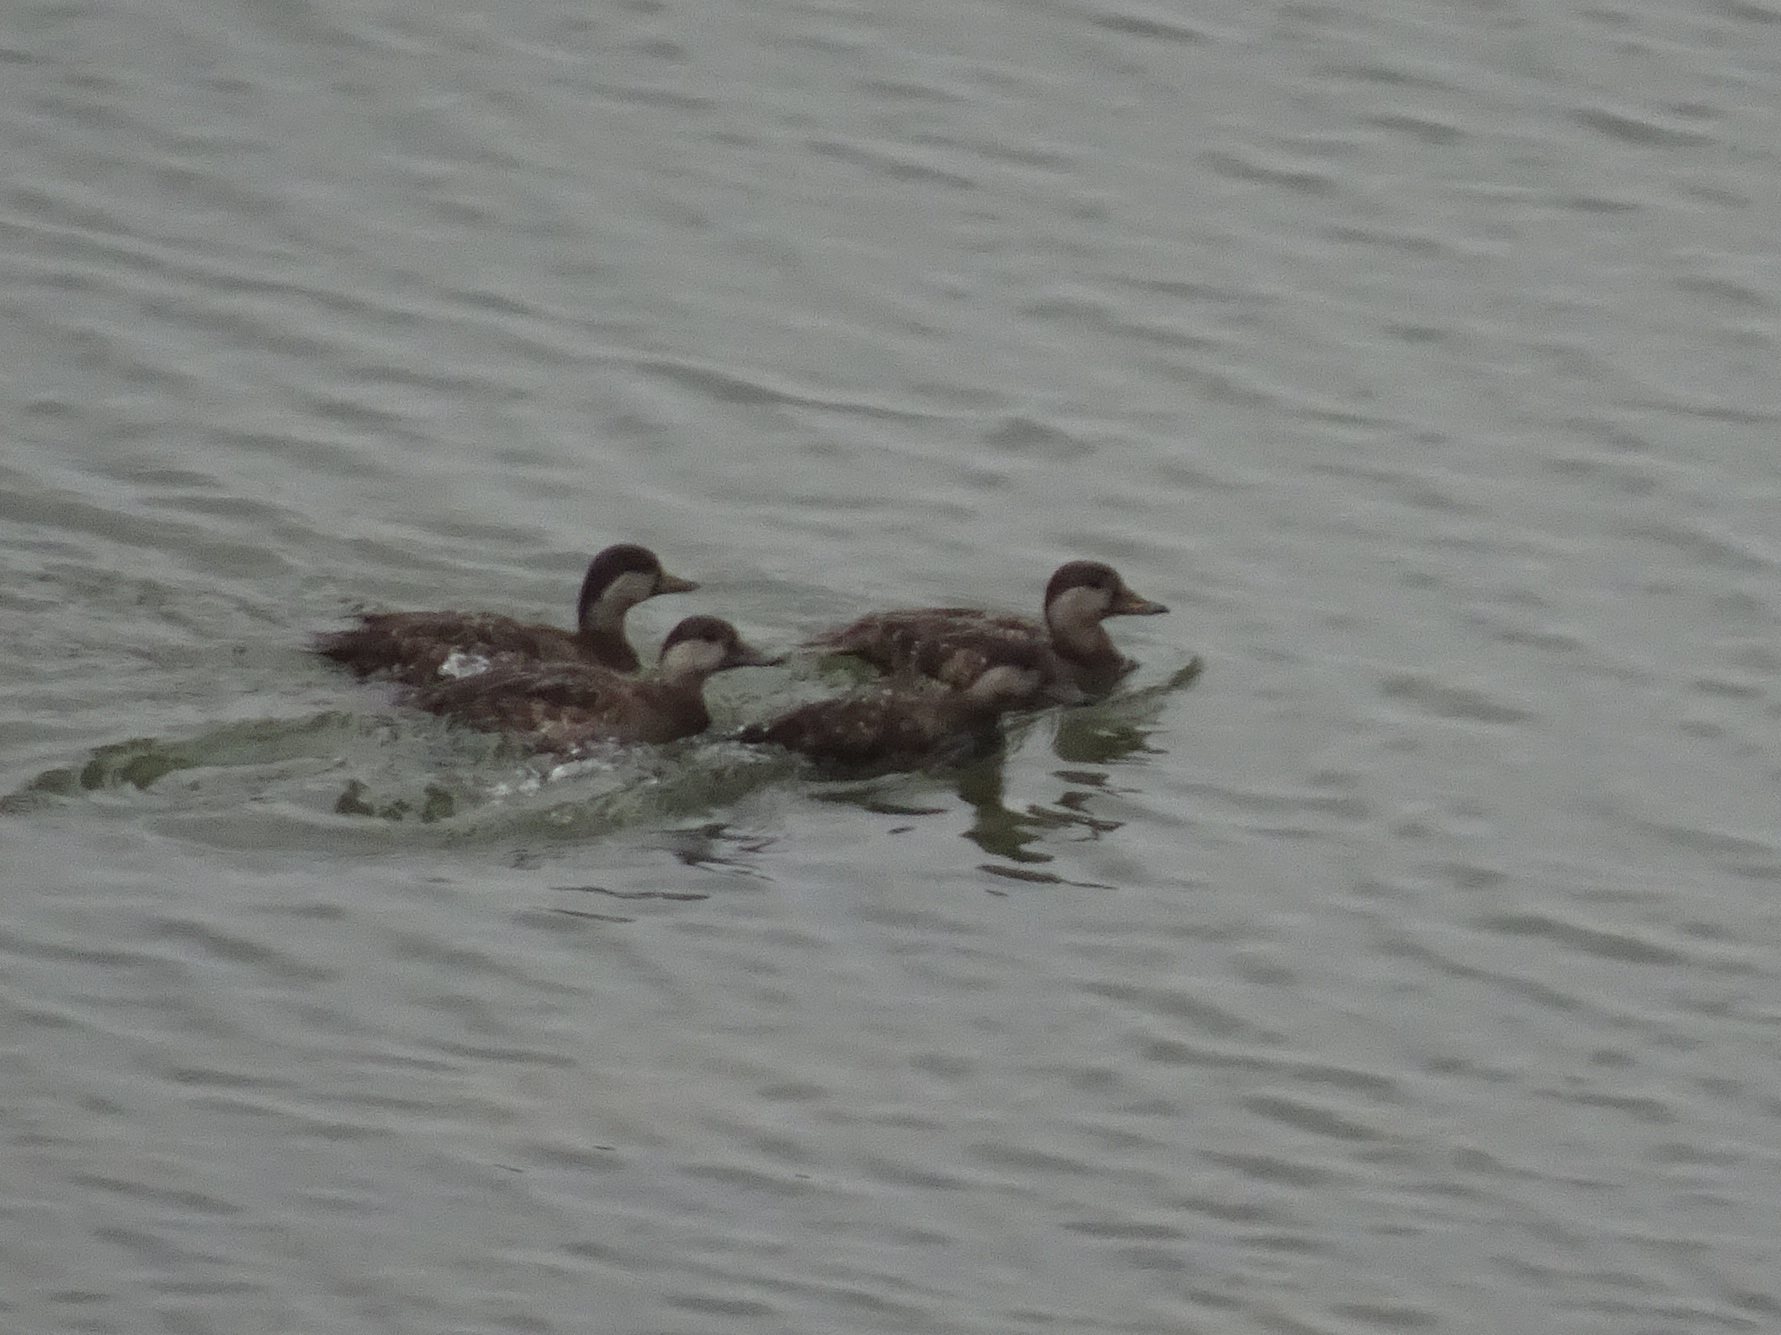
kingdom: Animalia
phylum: Chordata
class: Aves
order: Anseriformes
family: Anatidae
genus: Melanitta
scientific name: Melanitta americana
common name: Black scoter
